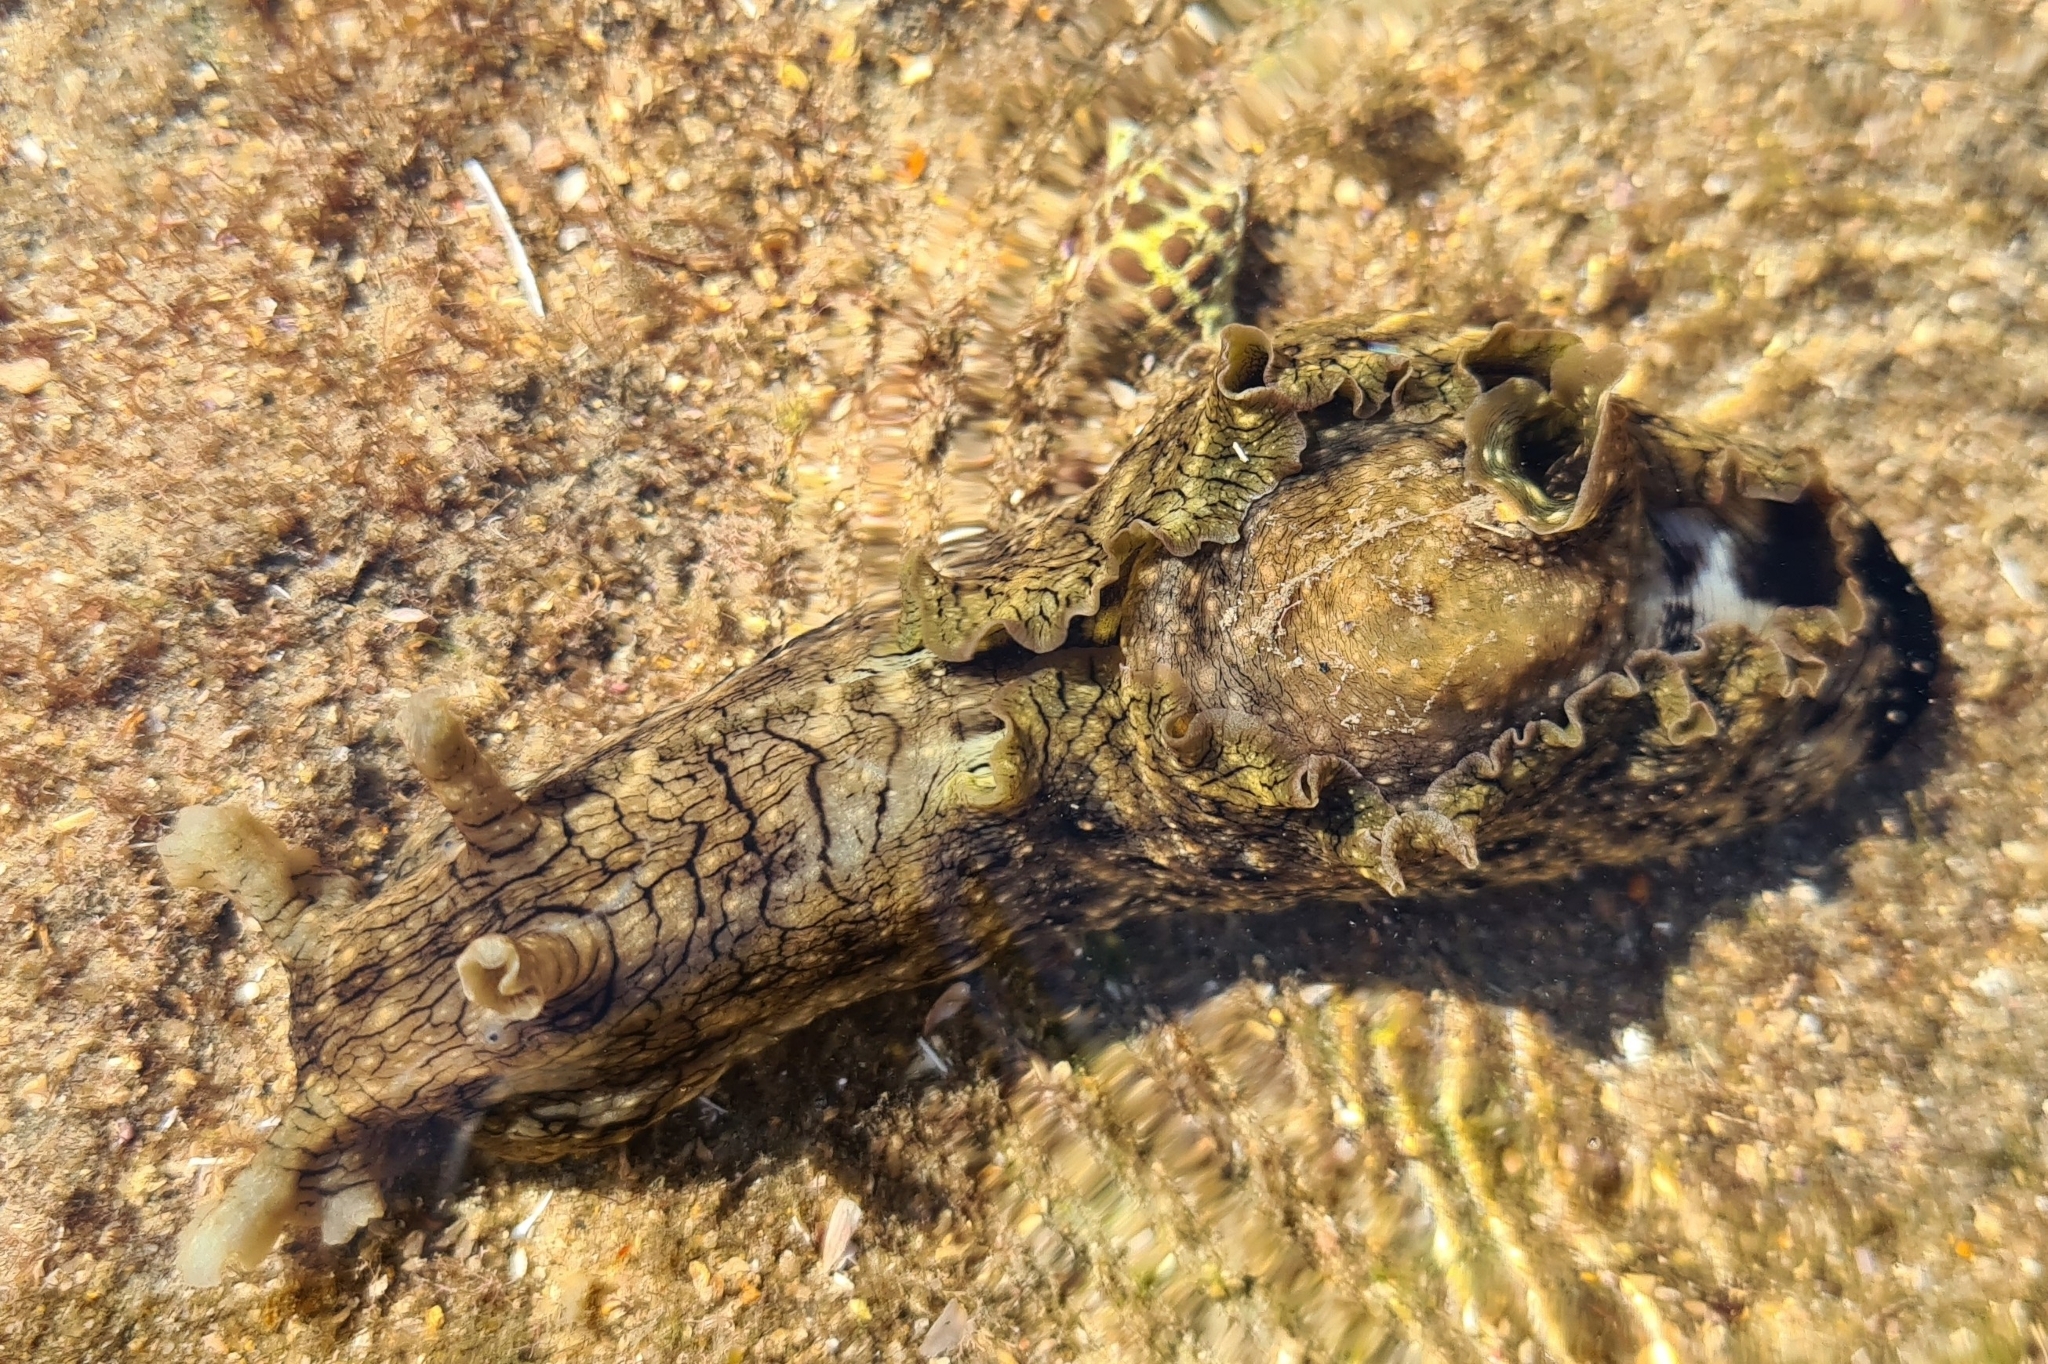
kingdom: Animalia
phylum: Mollusca
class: Gastropoda
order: Aplysiida
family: Aplysiidae
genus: Aplysia
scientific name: Aplysia argus
